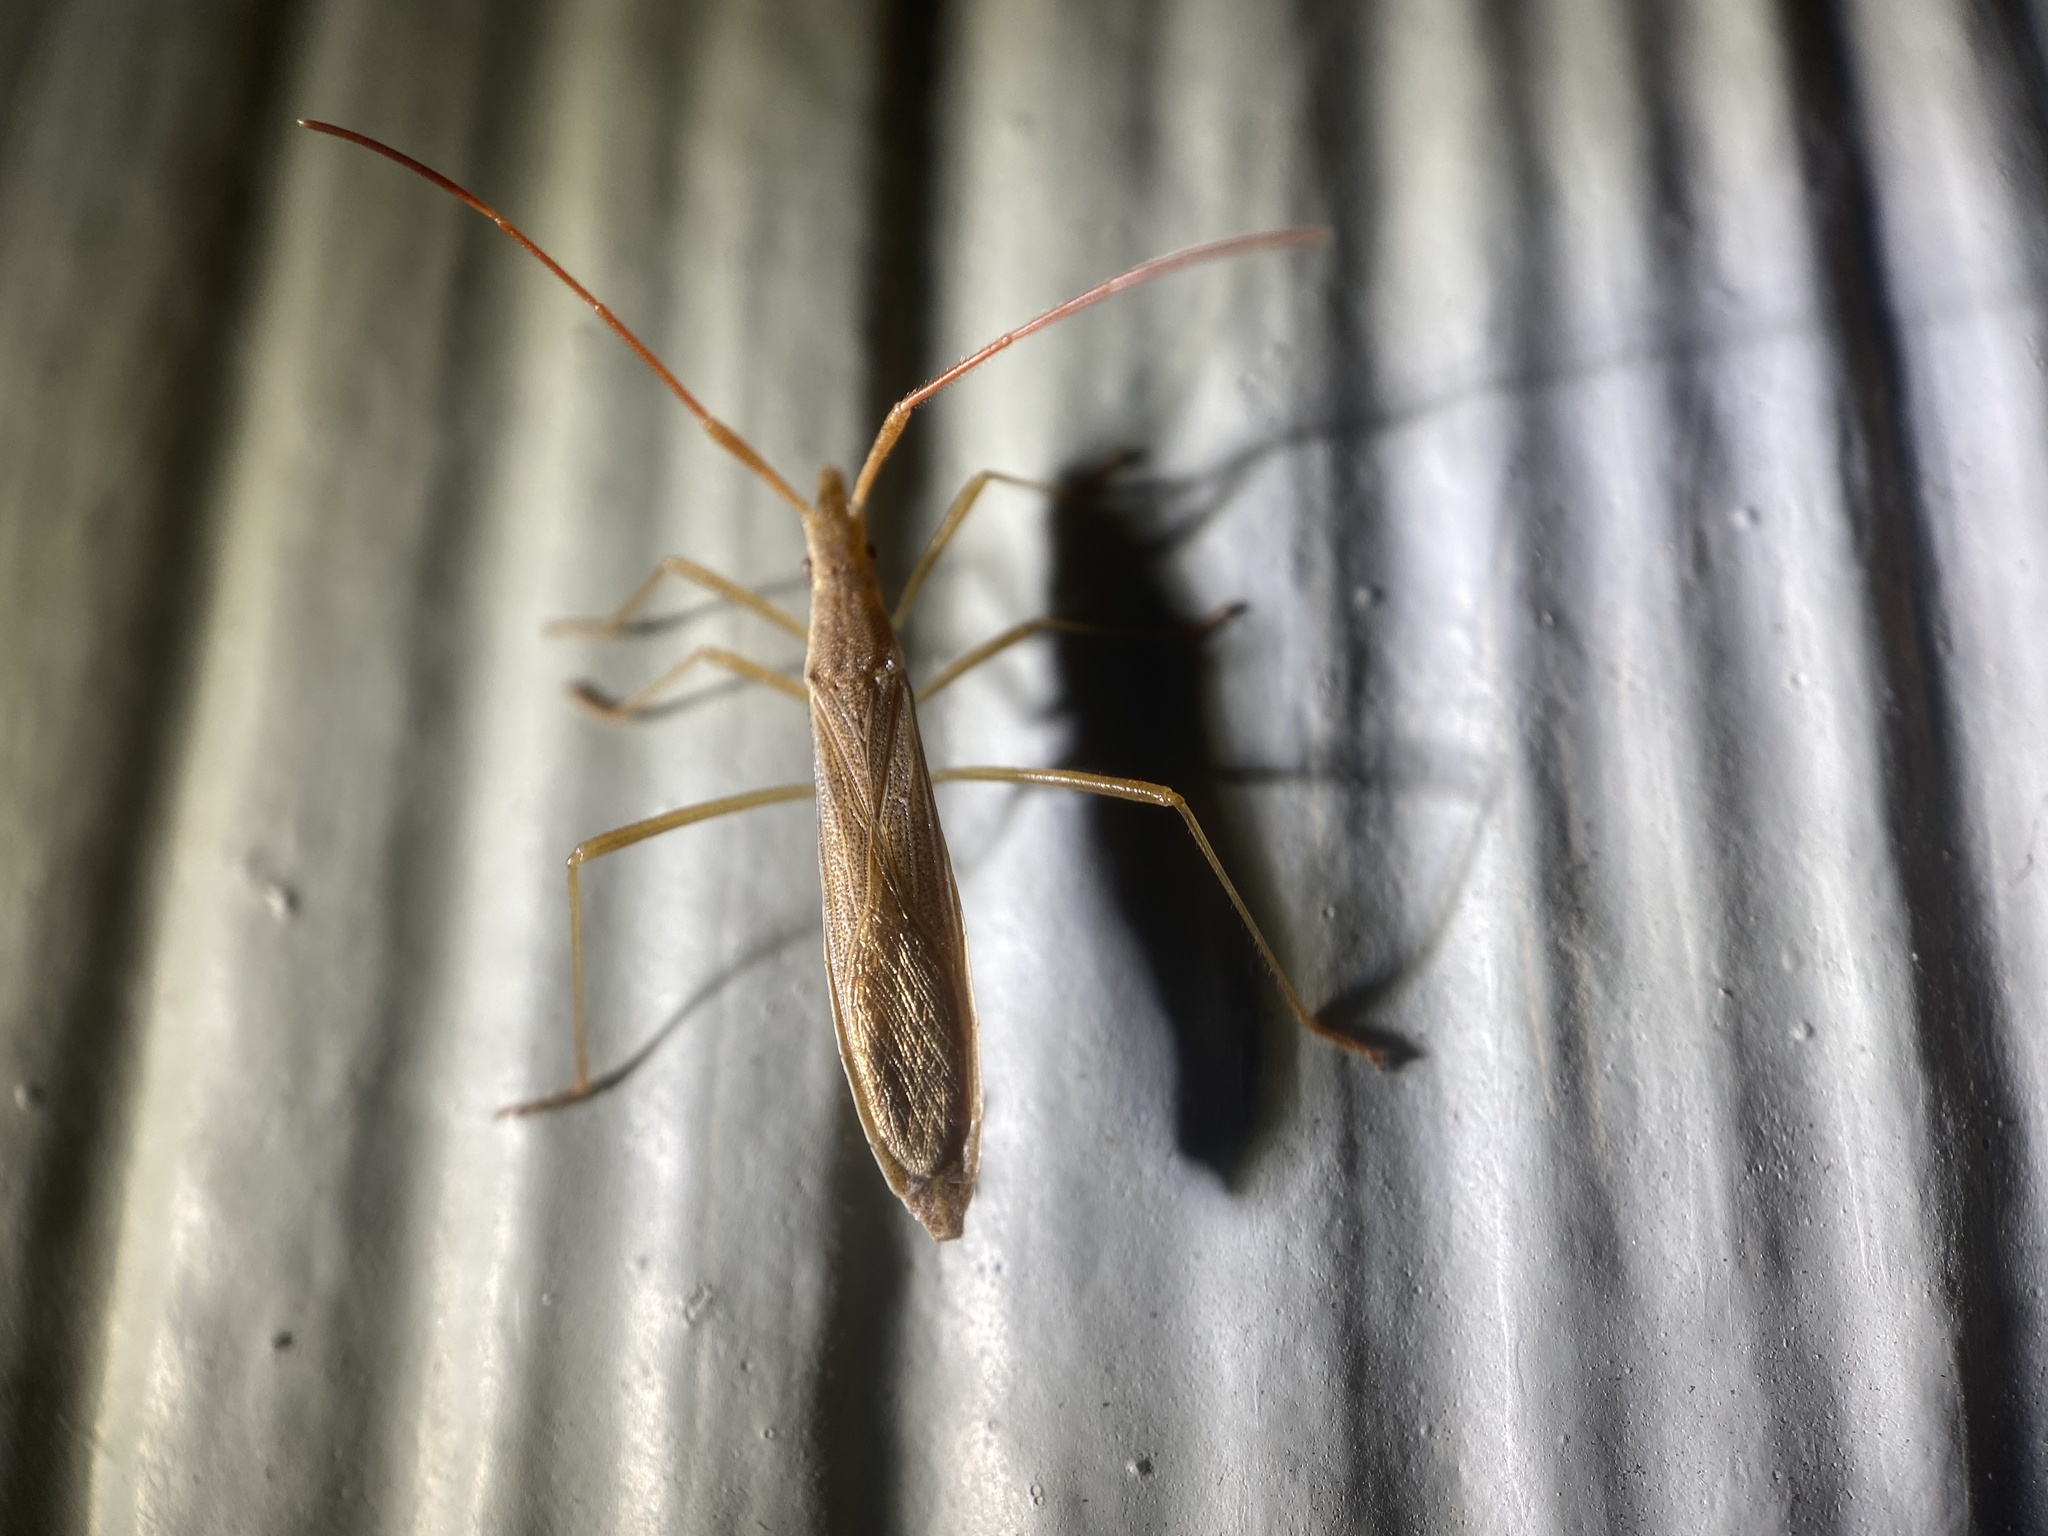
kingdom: Animalia
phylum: Arthropoda
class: Insecta
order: Hemiptera
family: Alydidae
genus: Protenor
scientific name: Protenor belfragei
